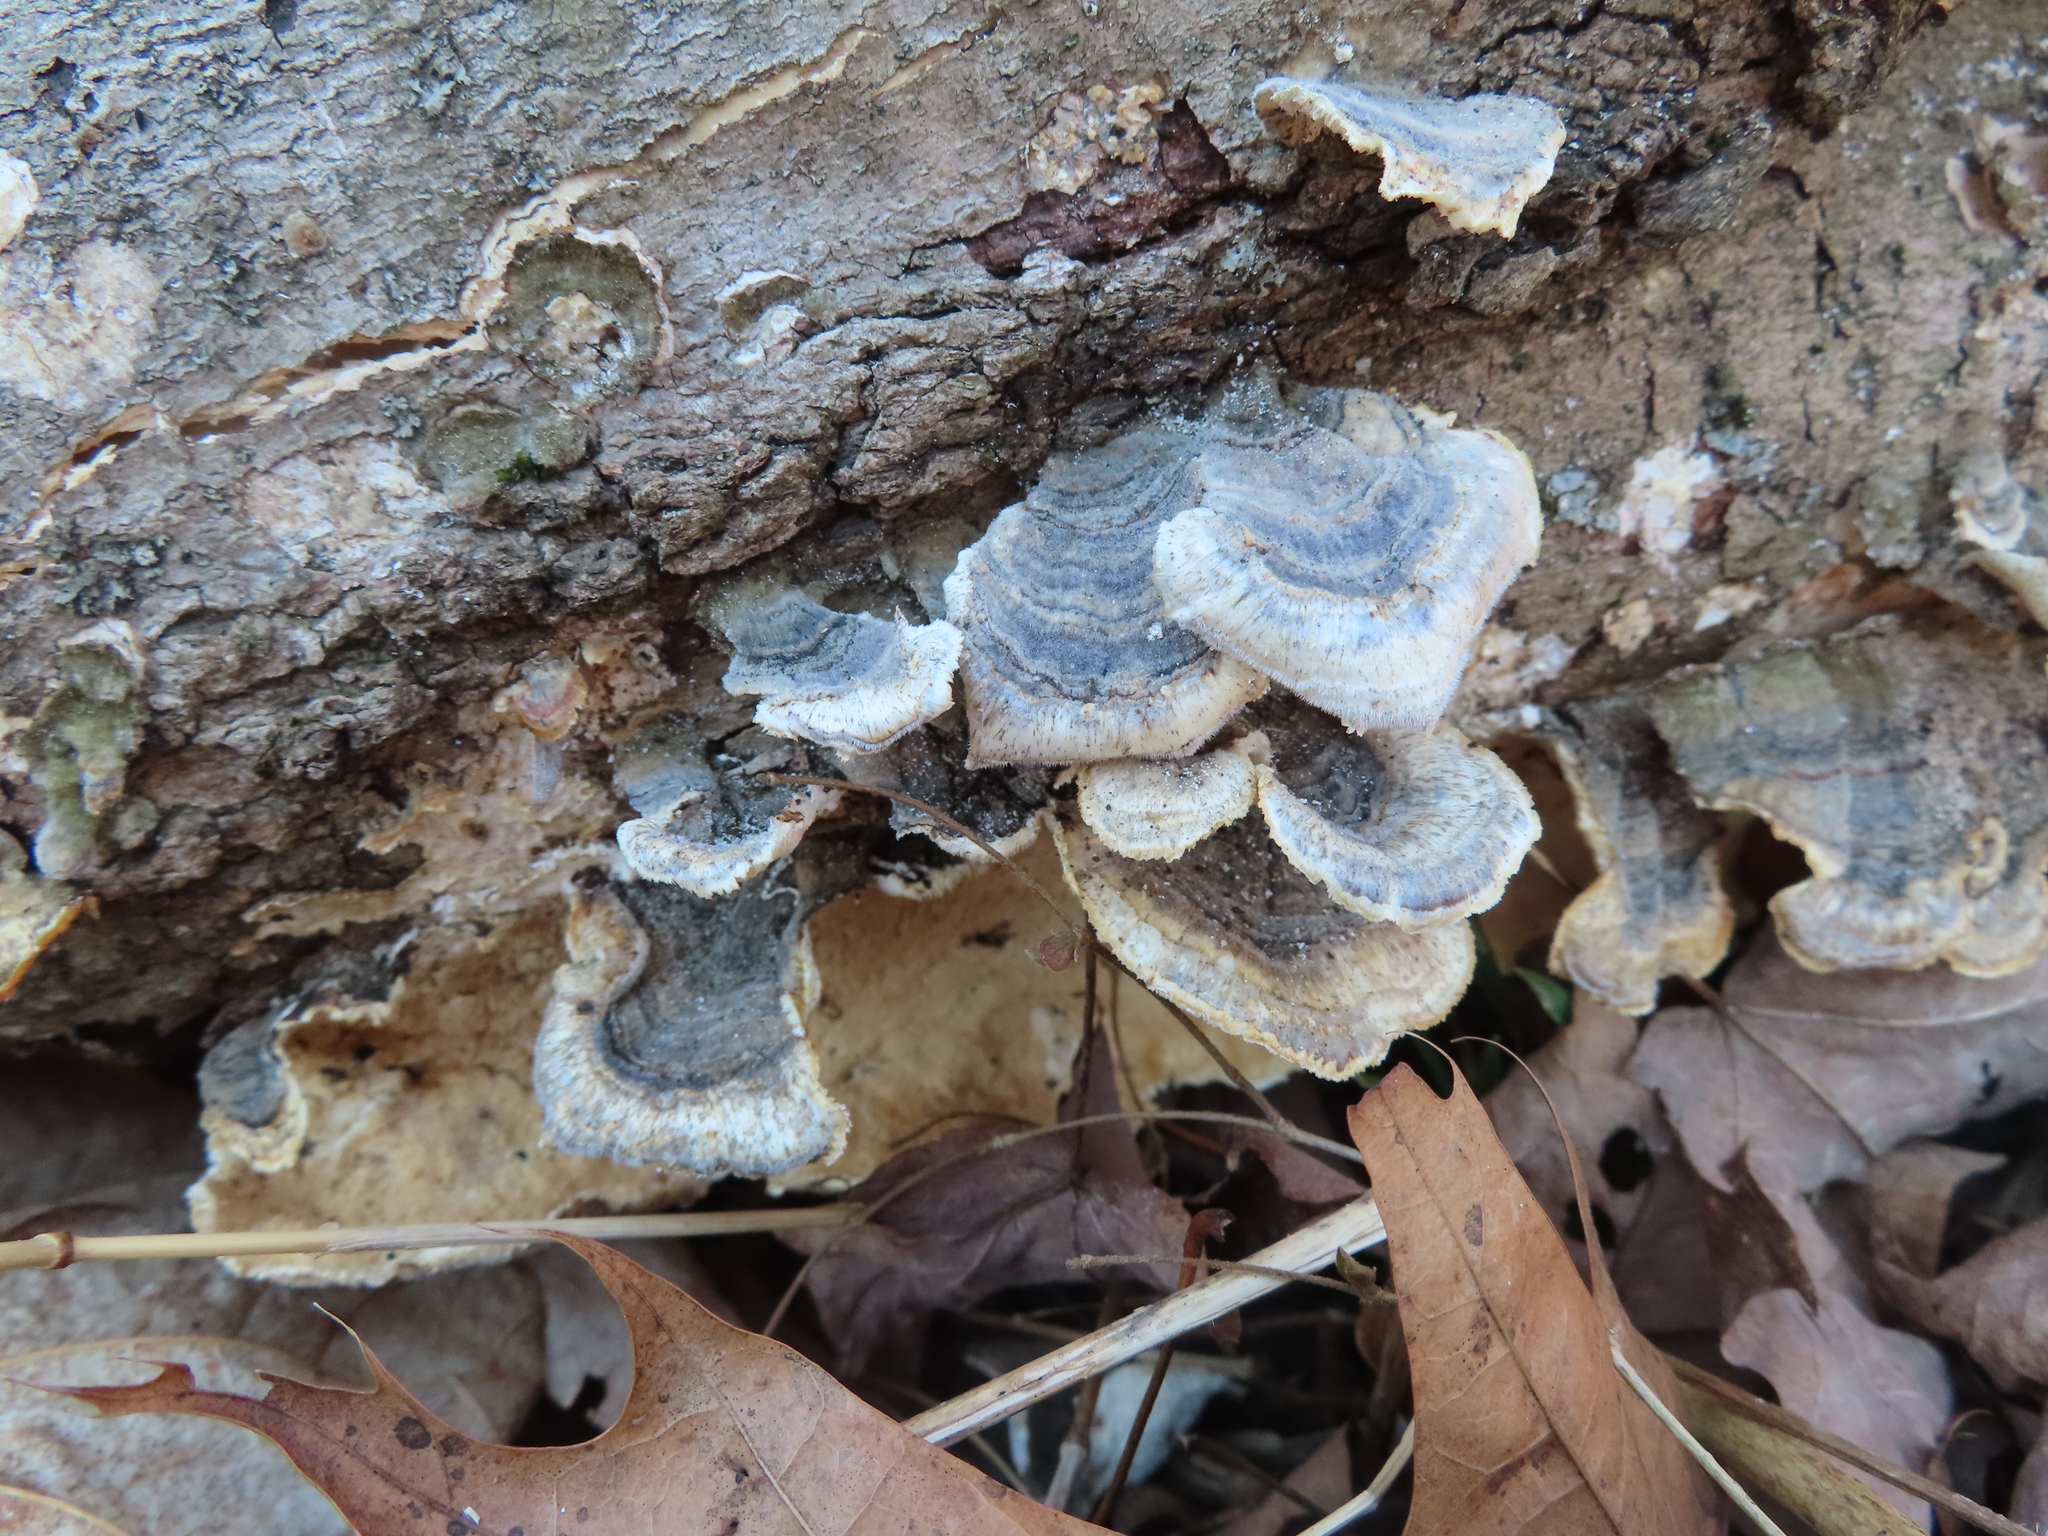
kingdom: Fungi
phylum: Basidiomycota
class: Agaricomycetes
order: Polyporales
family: Polyporaceae
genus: Trametes
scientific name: Trametes versicolor
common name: Turkeytail
